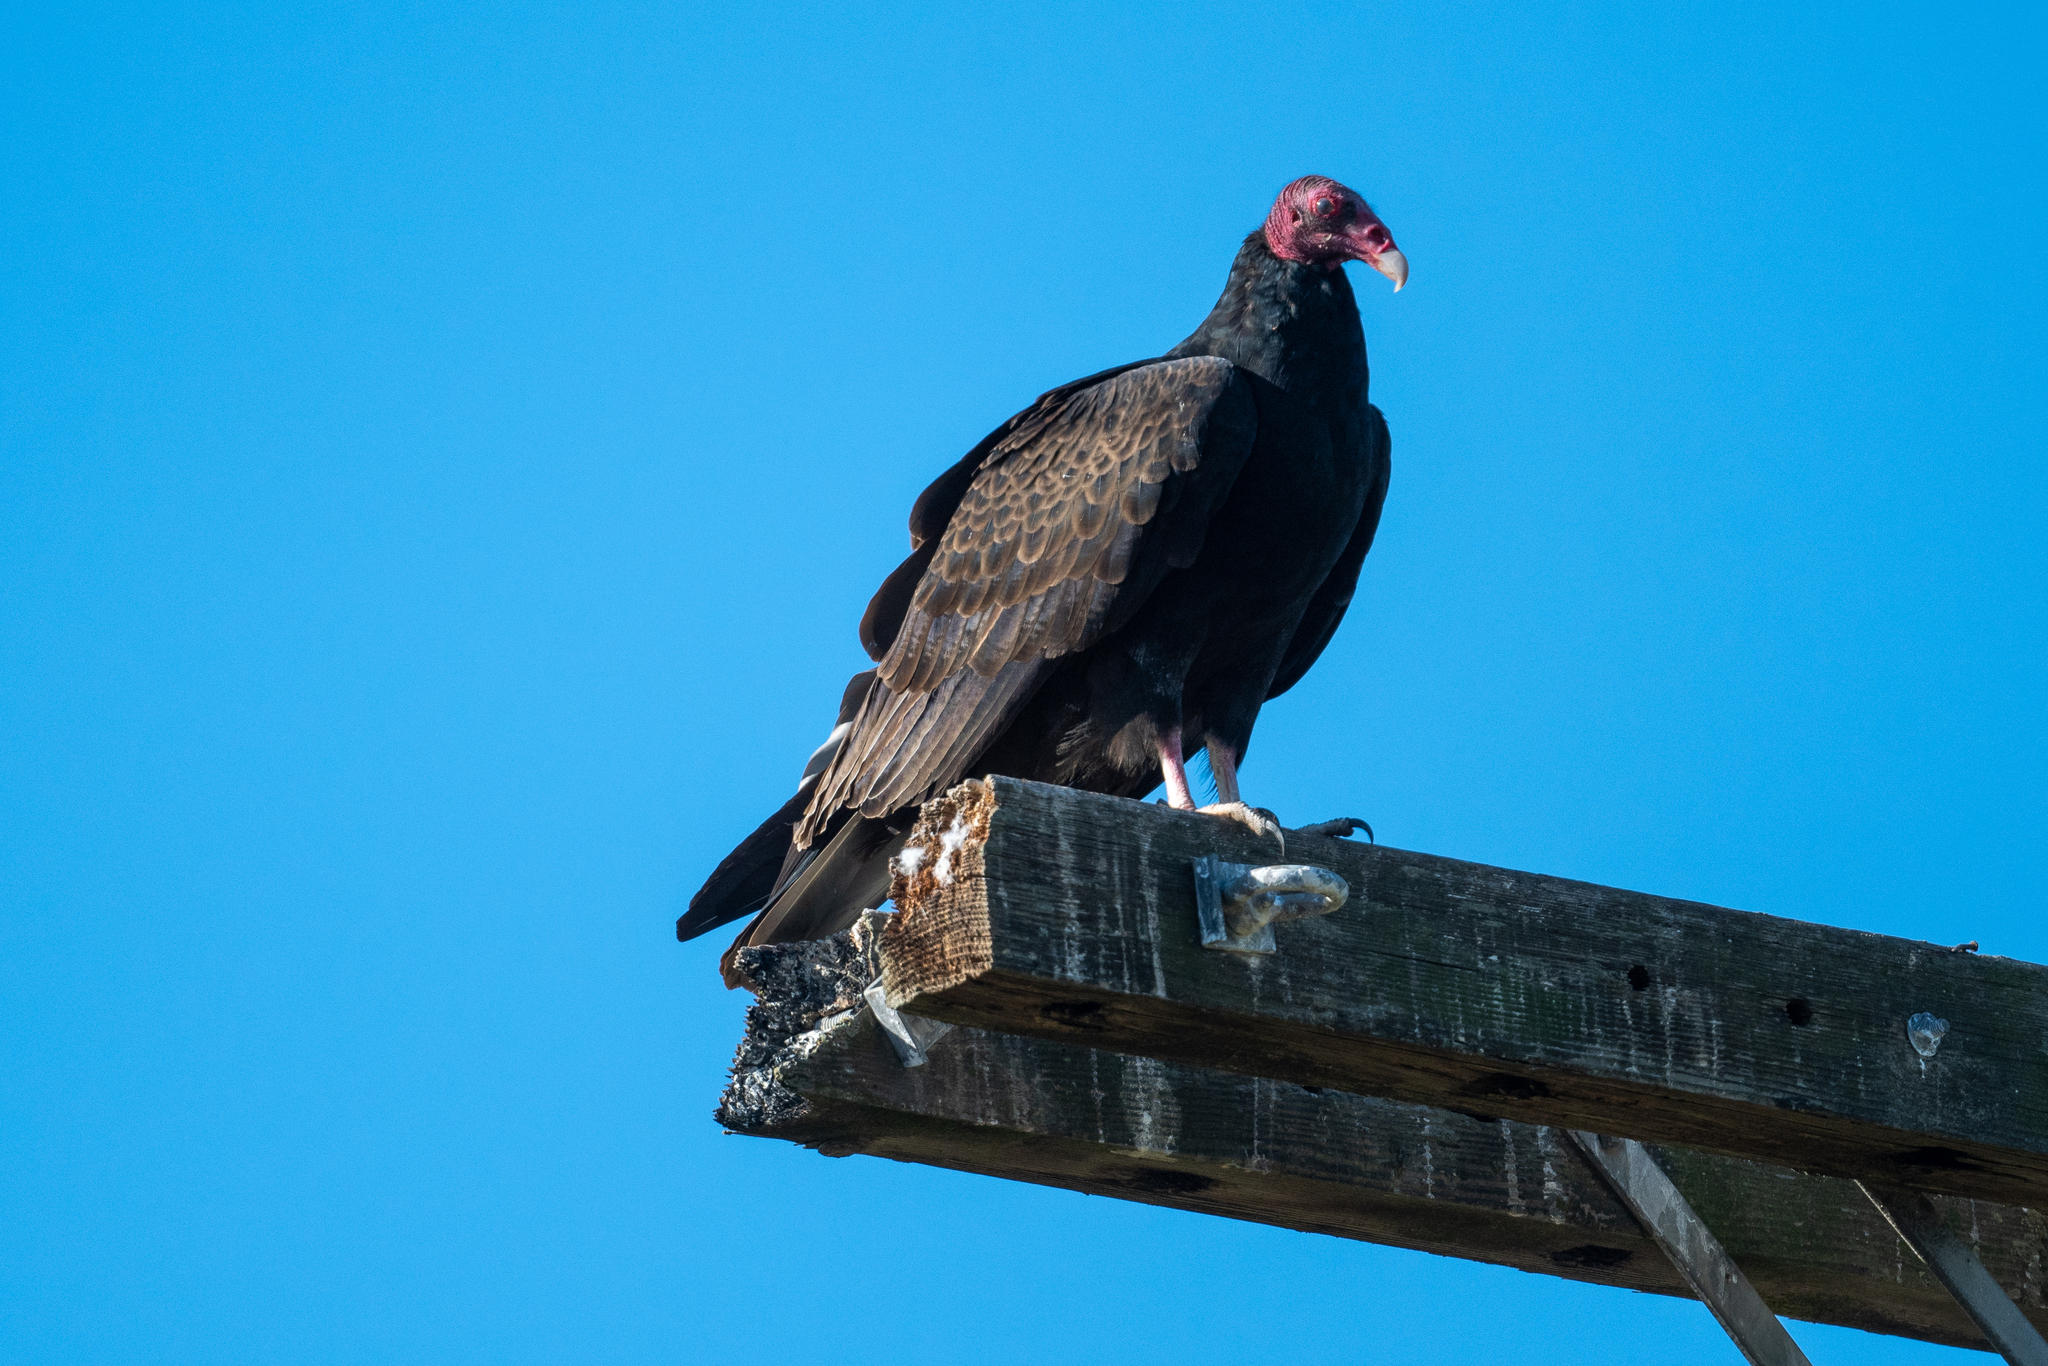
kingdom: Animalia
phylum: Chordata
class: Aves
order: Accipitriformes
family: Cathartidae
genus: Cathartes
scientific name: Cathartes aura
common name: Turkey vulture
